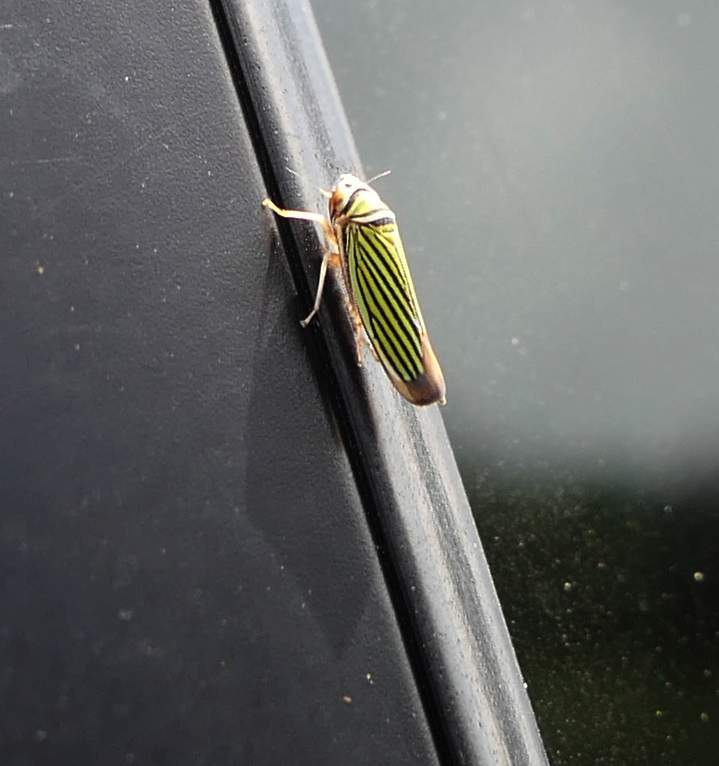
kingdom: Animalia
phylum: Arthropoda
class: Insecta
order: Hemiptera
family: Cicadellidae
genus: Tylozygus
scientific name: Tylozygus bifidus
